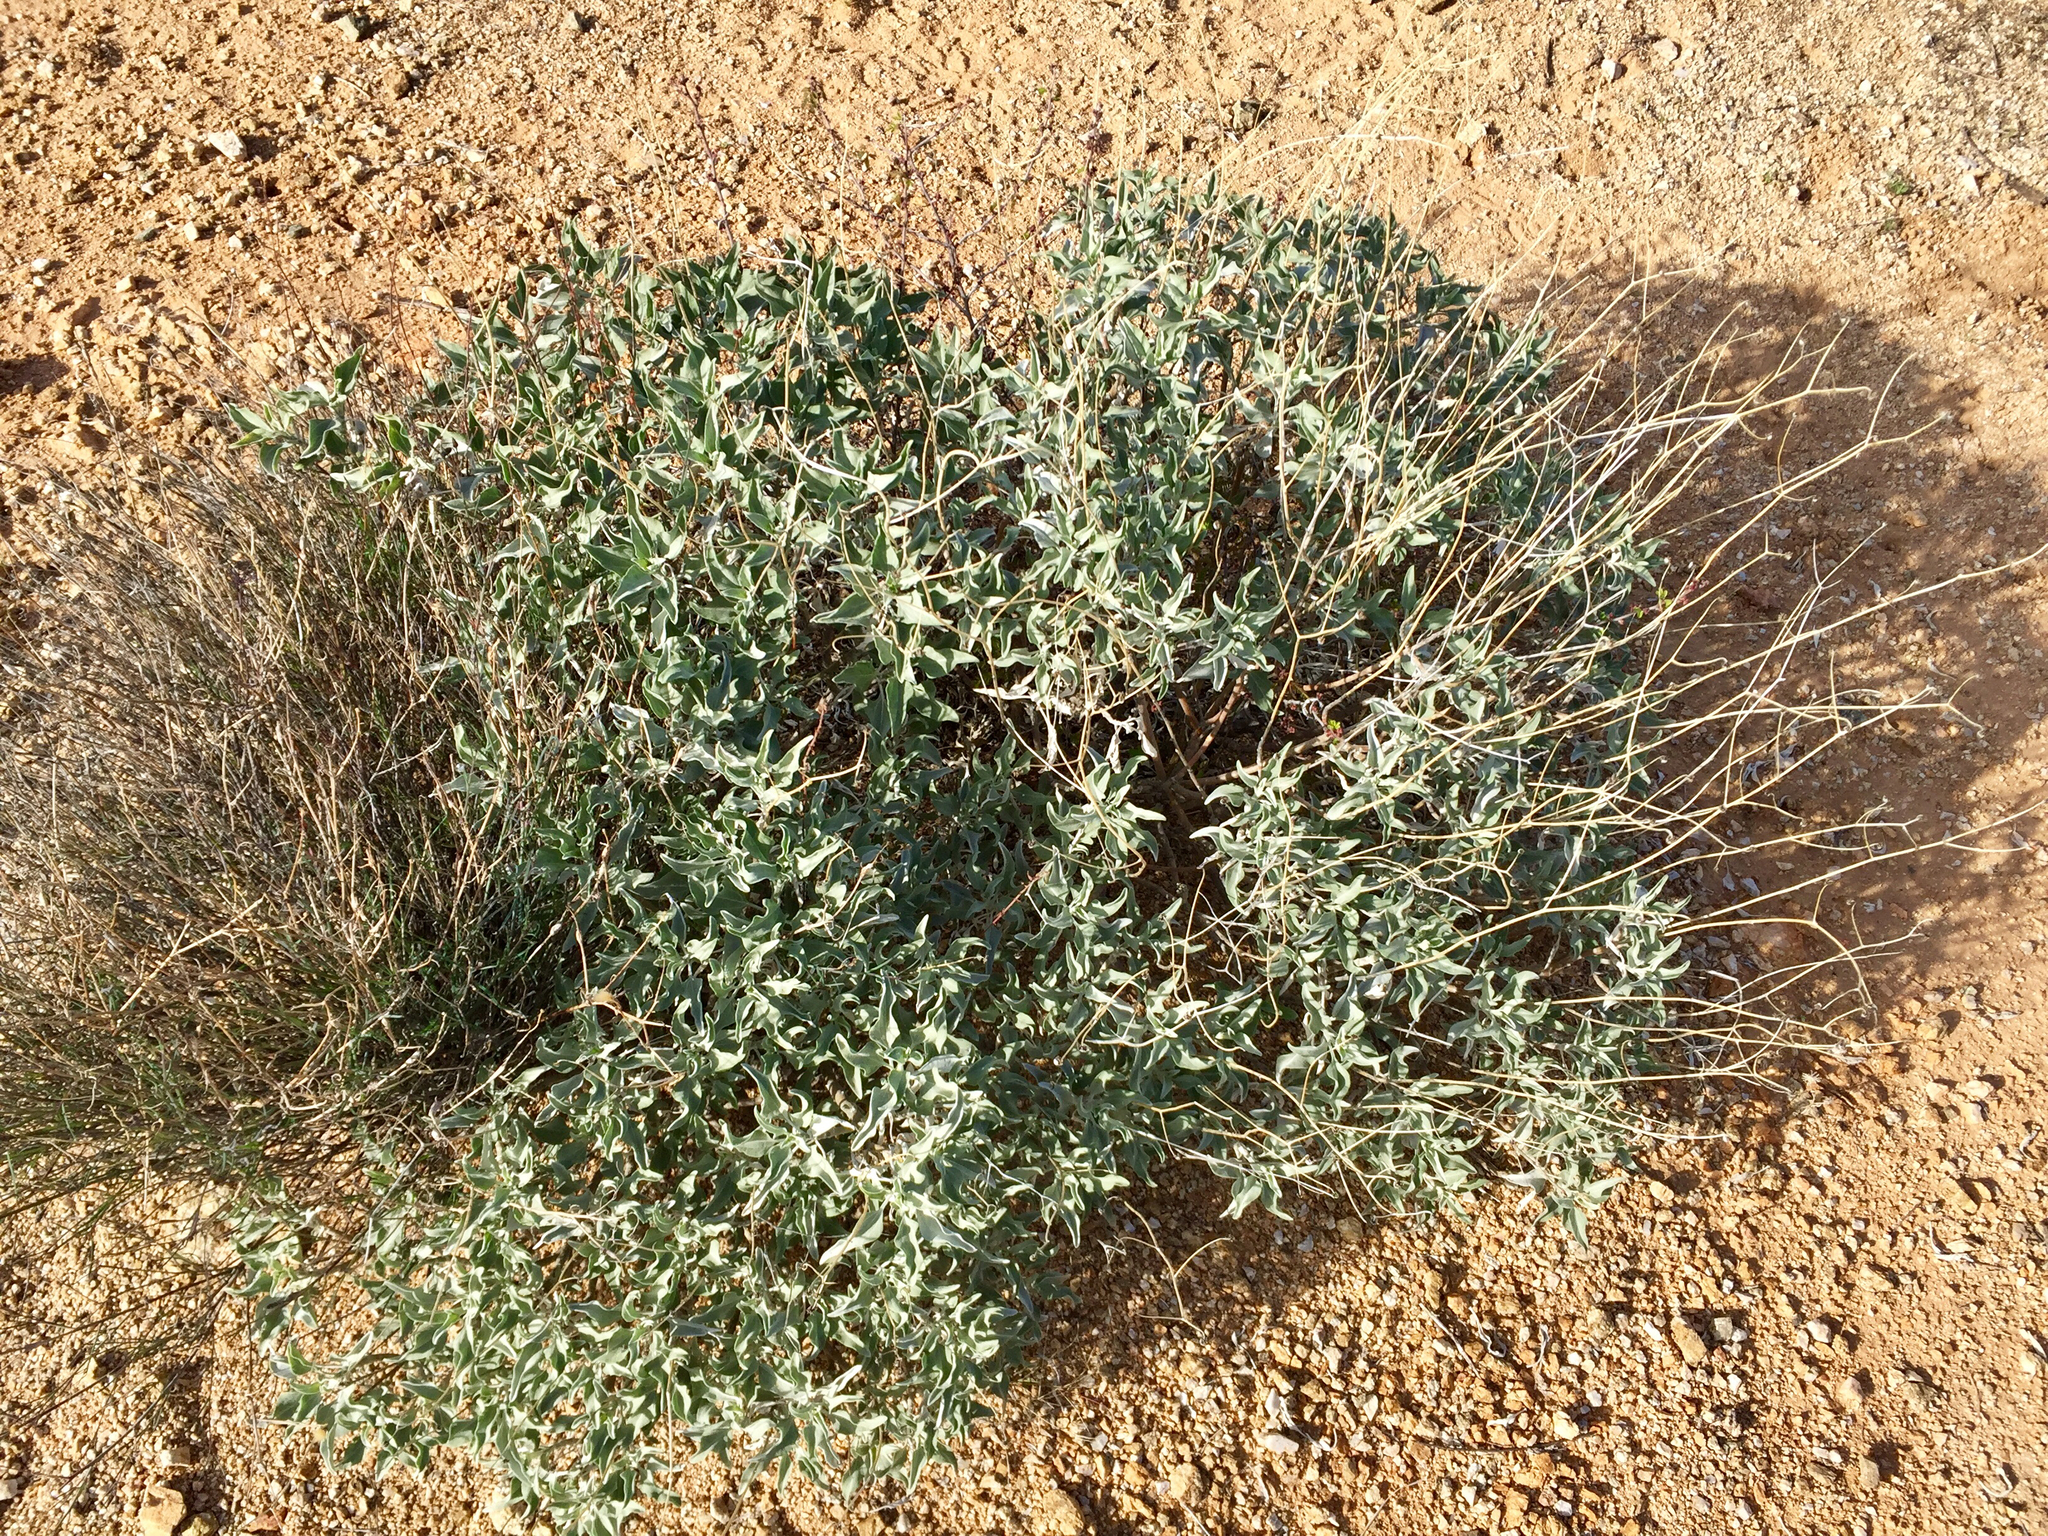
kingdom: Plantae
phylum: Tracheophyta
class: Magnoliopsida
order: Asterales
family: Asteraceae
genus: Encelia
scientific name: Encelia farinosa
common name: Brittlebush
